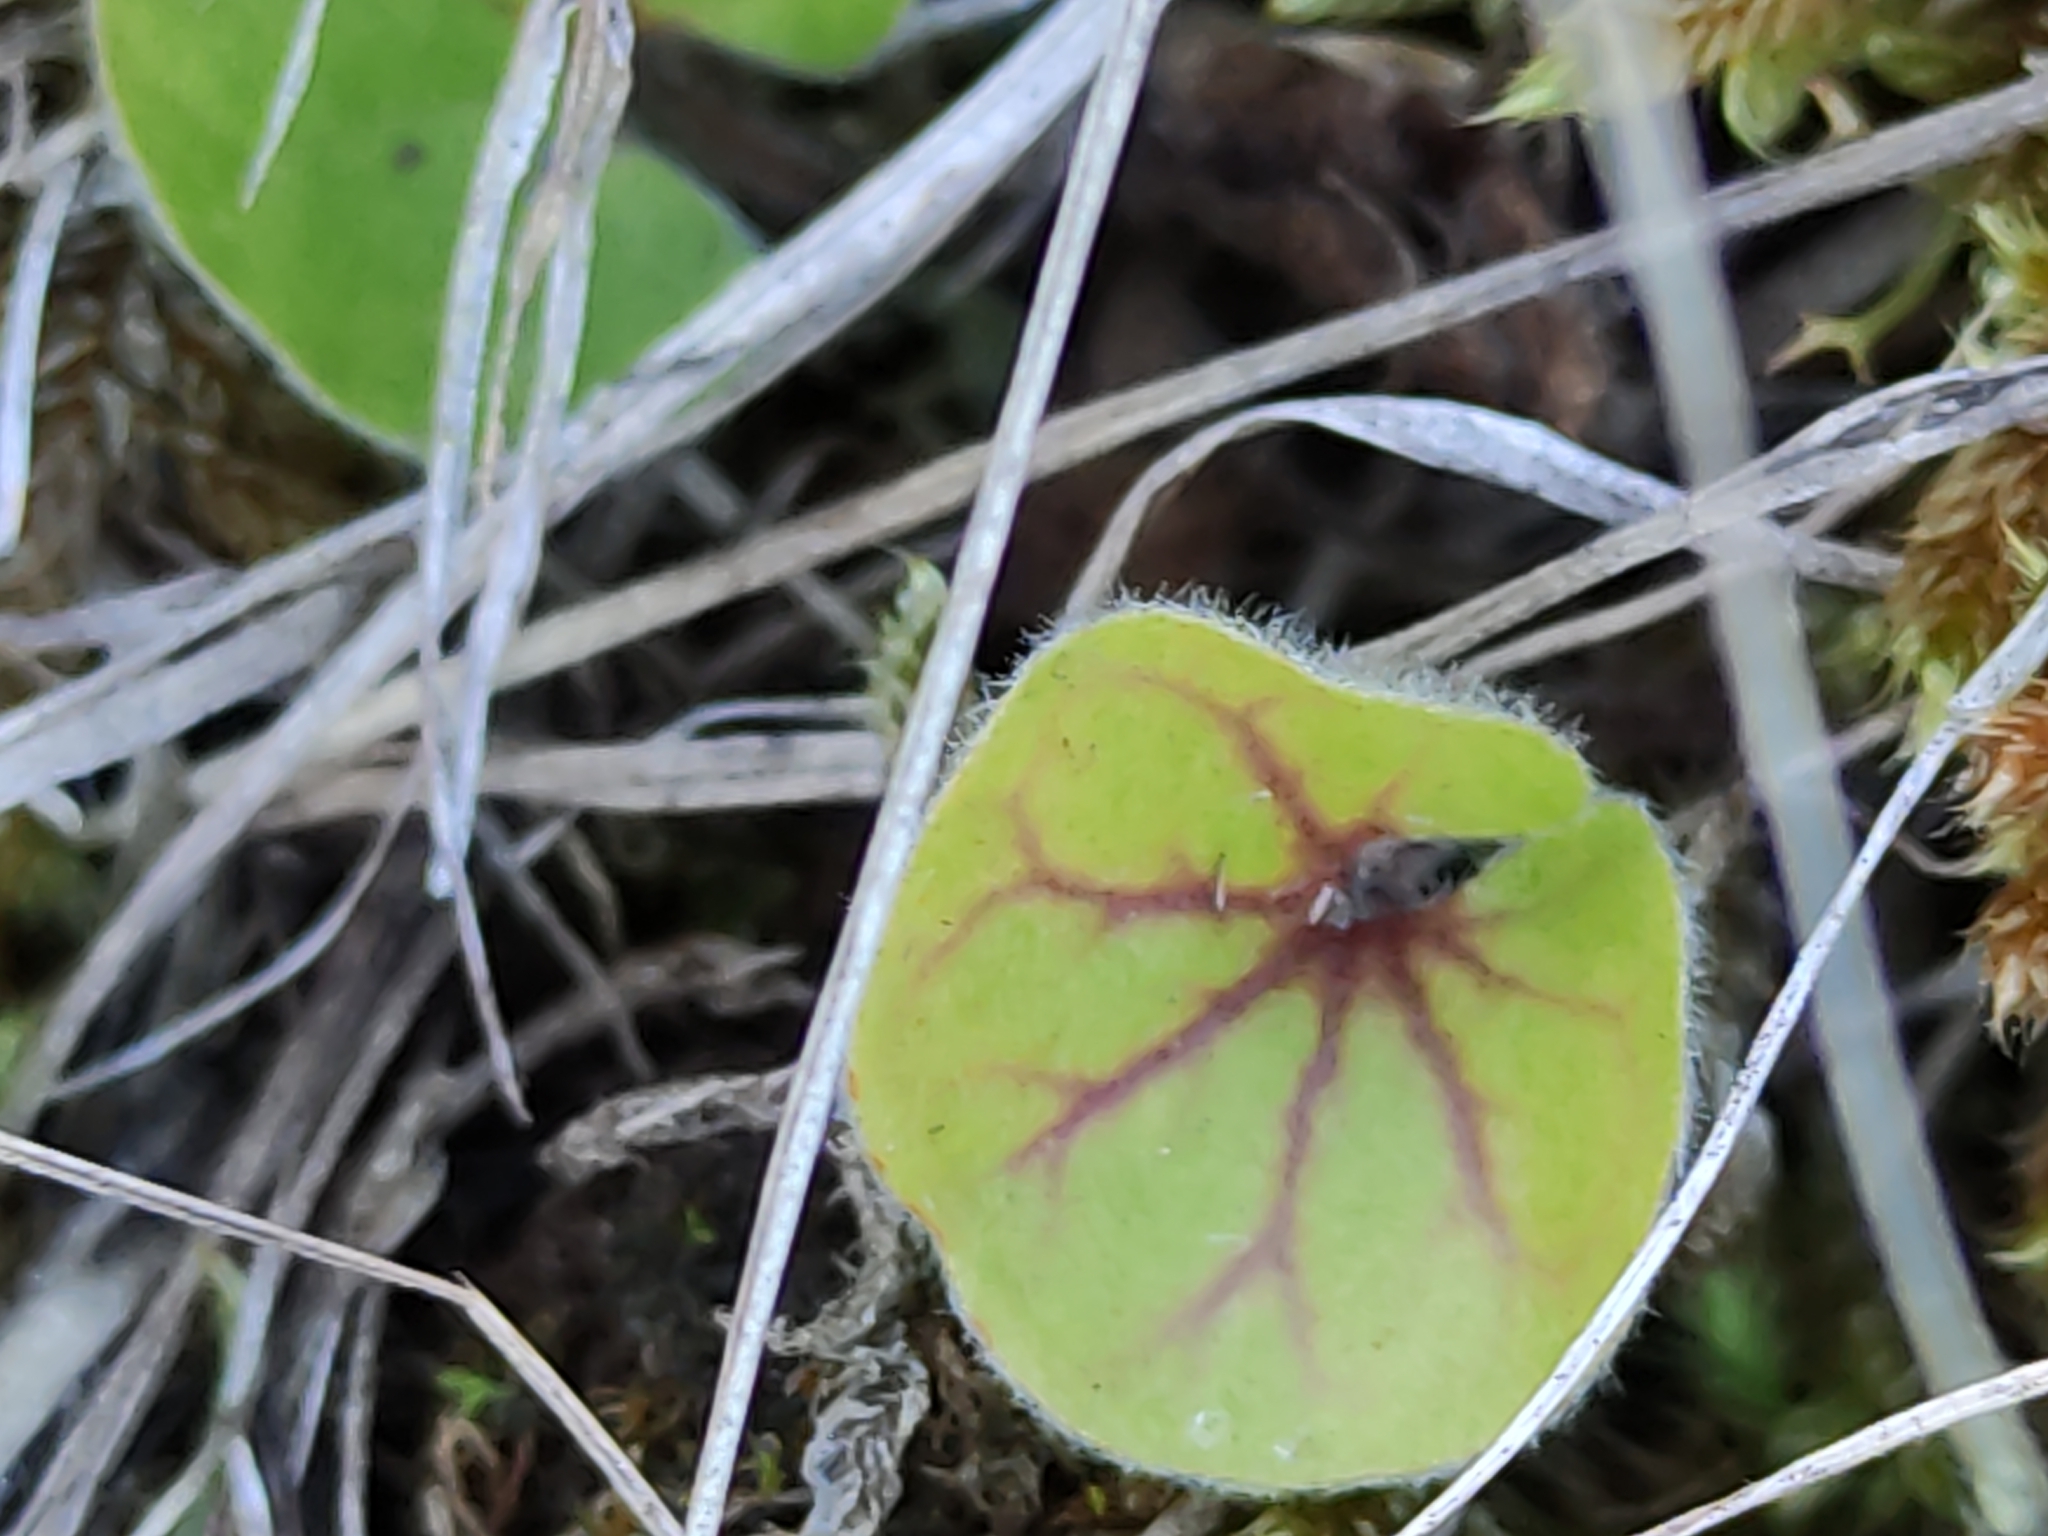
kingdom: Plantae
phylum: Tracheophyta
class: Magnoliopsida
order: Solanales
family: Convolvulaceae
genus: Dichondra
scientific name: Dichondra repens
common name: Kidneyweed
